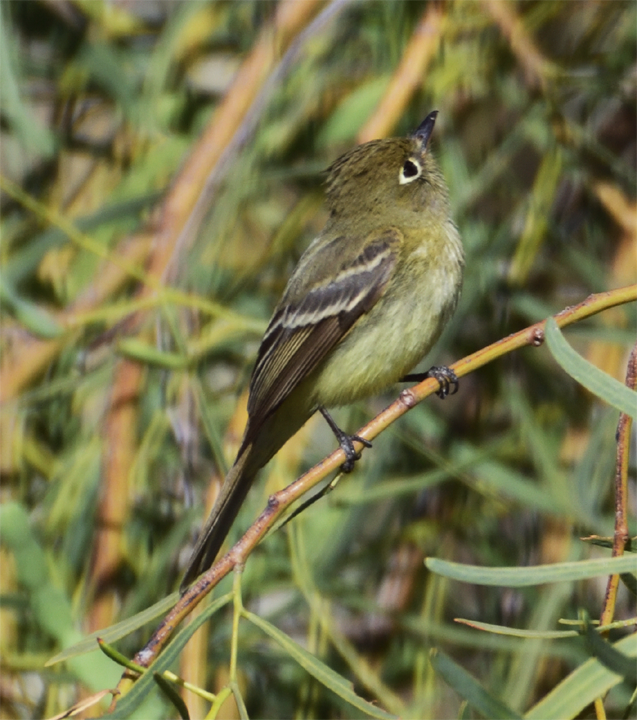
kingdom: Animalia
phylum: Chordata
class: Aves
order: Passeriformes
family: Tyrannidae
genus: Empidonax
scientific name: Empidonax difficilis
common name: Pacific-slope flycatcher
